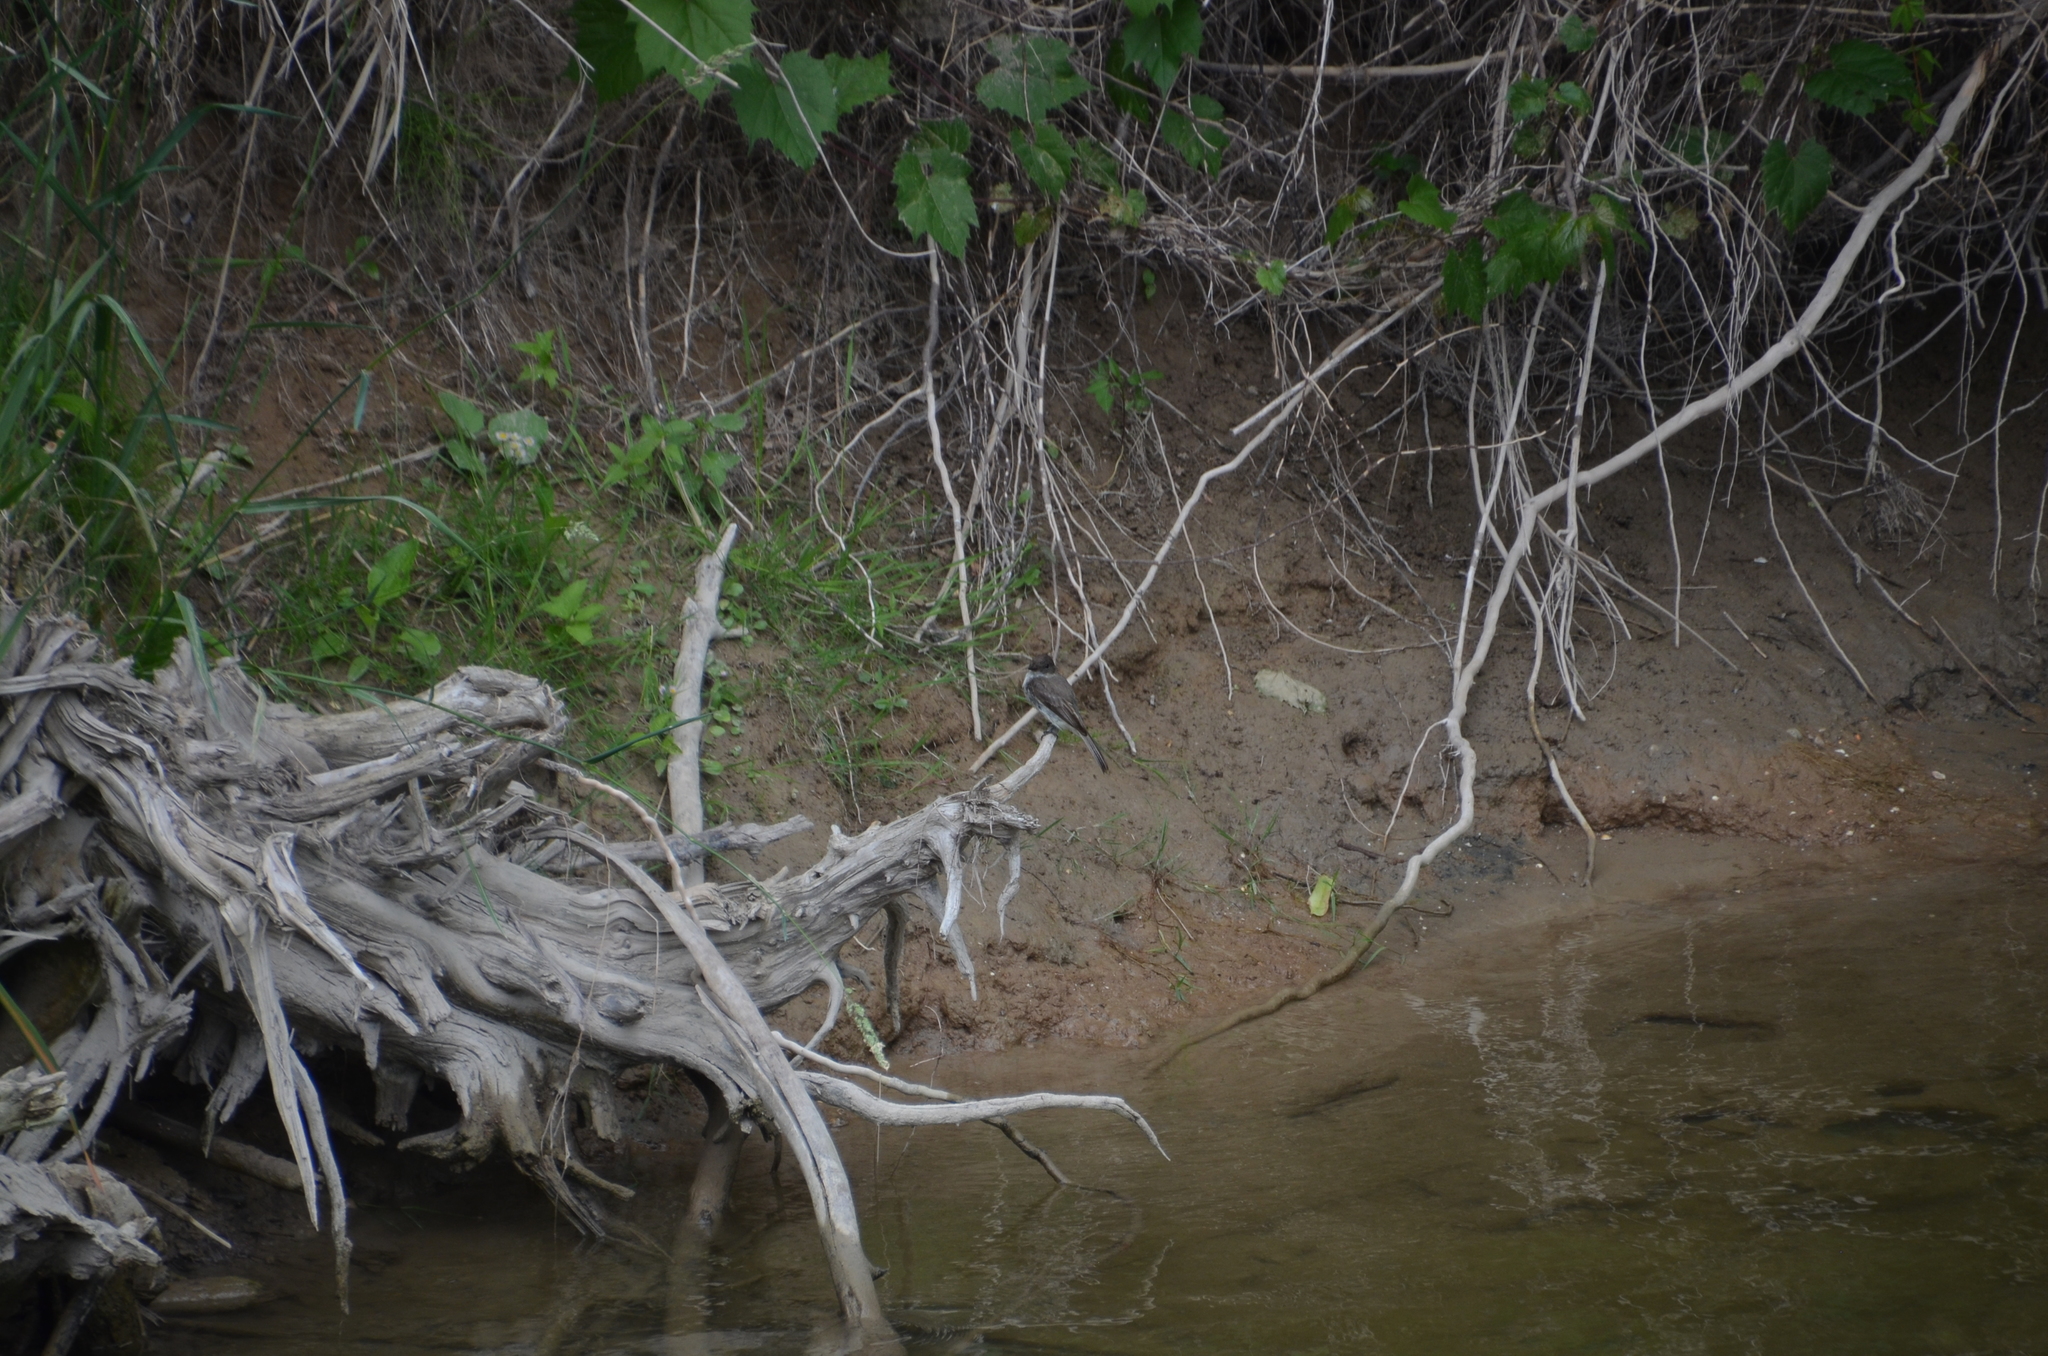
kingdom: Animalia
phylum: Chordata
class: Aves
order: Passeriformes
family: Tyrannidae
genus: Sayornis
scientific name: Sayornis phoebe
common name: Eastern phoebe
